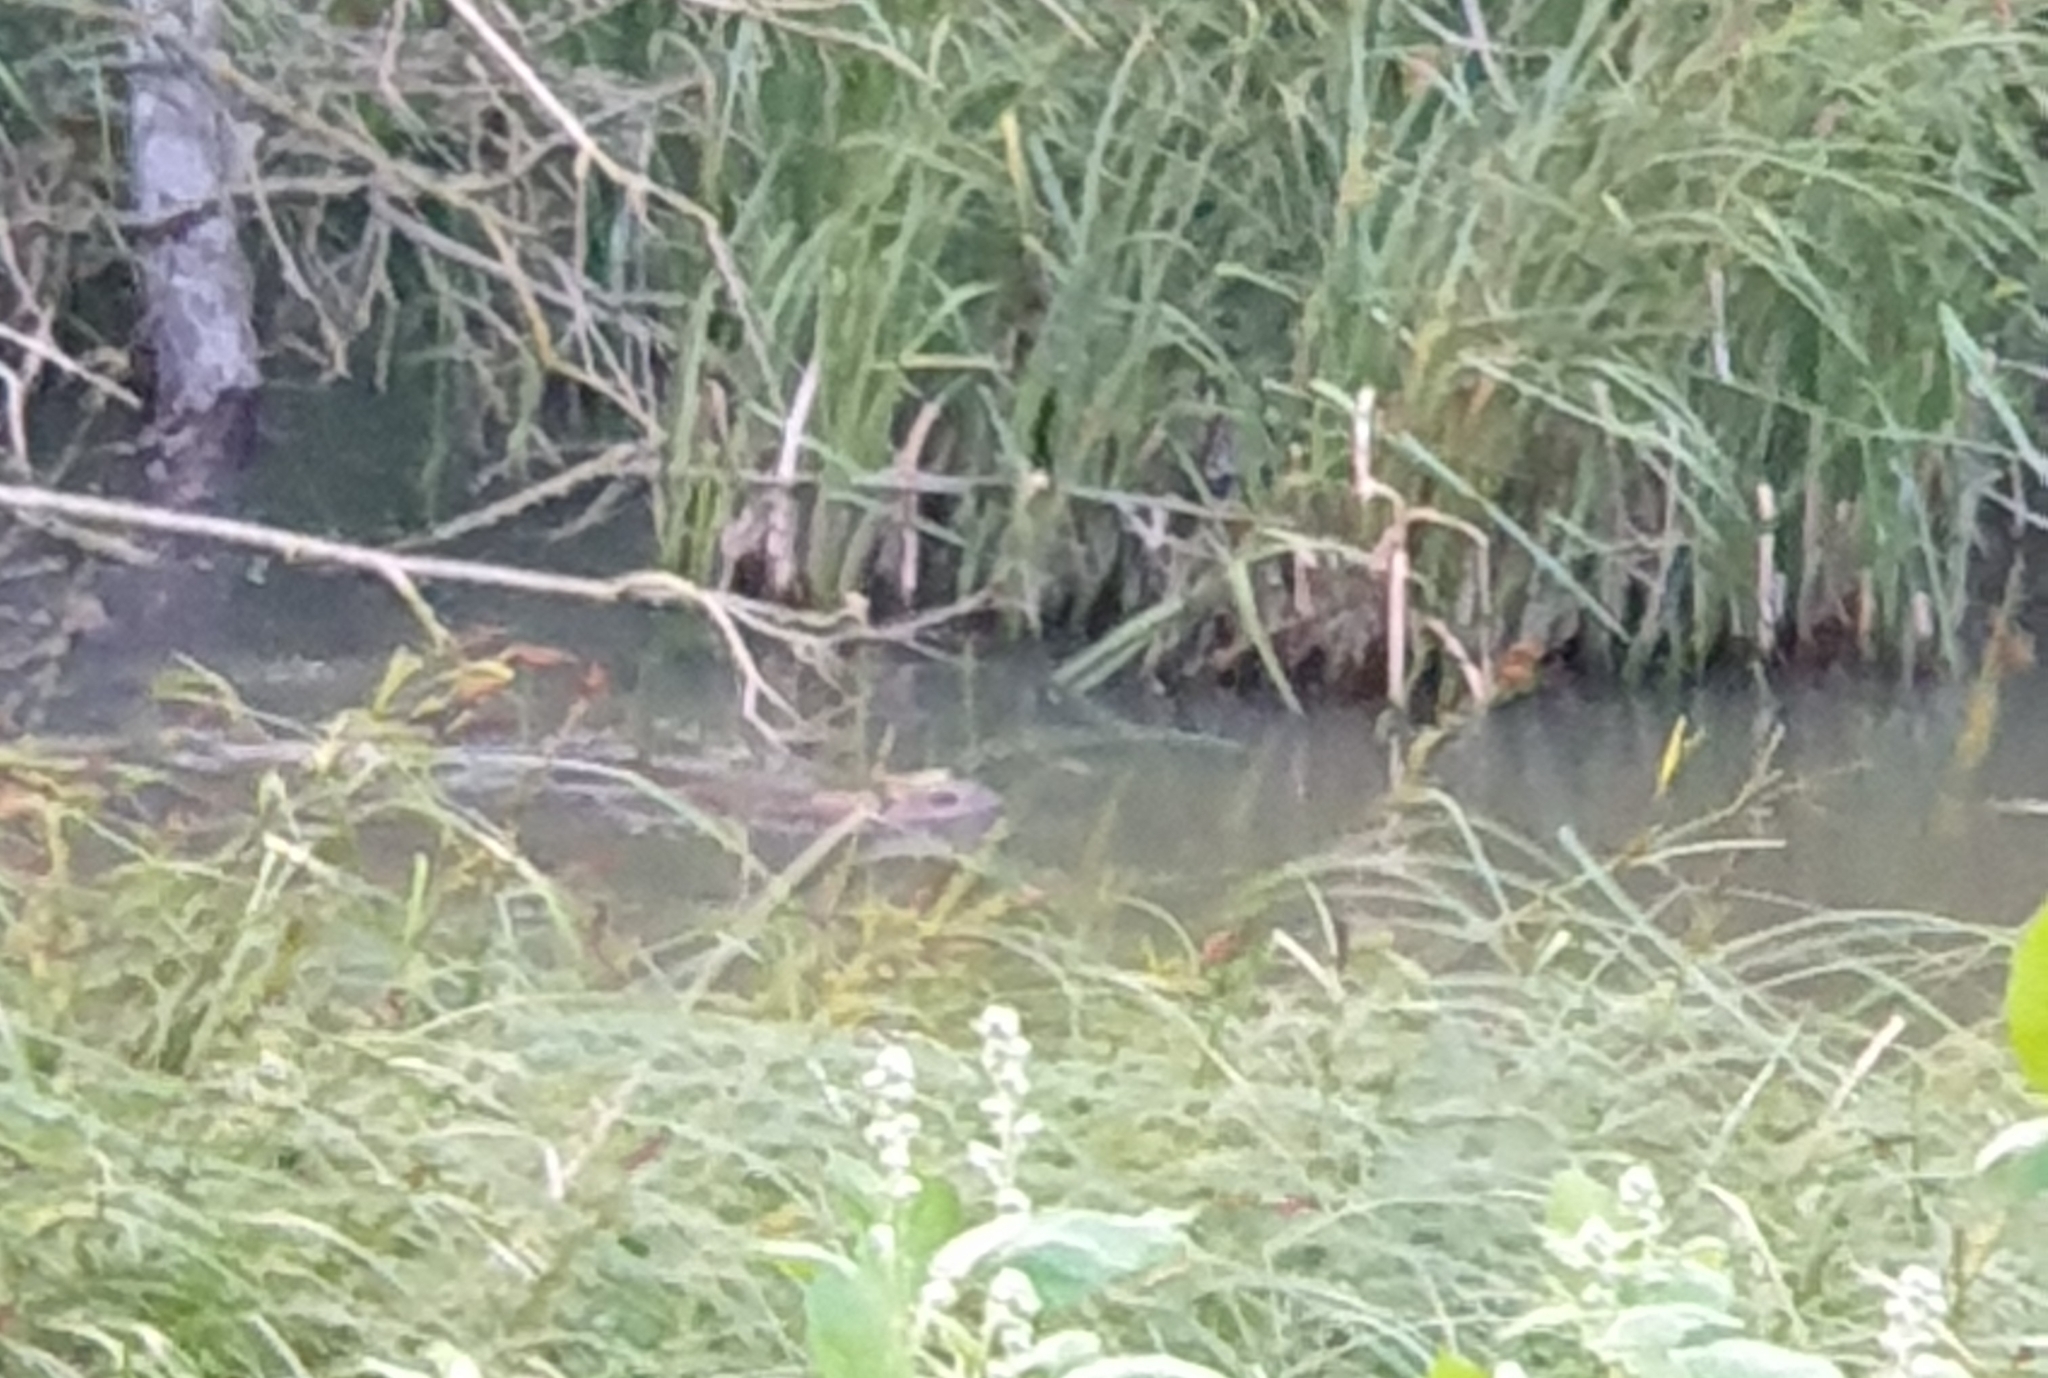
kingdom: Animalia
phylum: Chordata
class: Mammalia
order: Rodentia
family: Castoridae
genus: Castor
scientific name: Castor fiber
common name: Eurasian beaver
